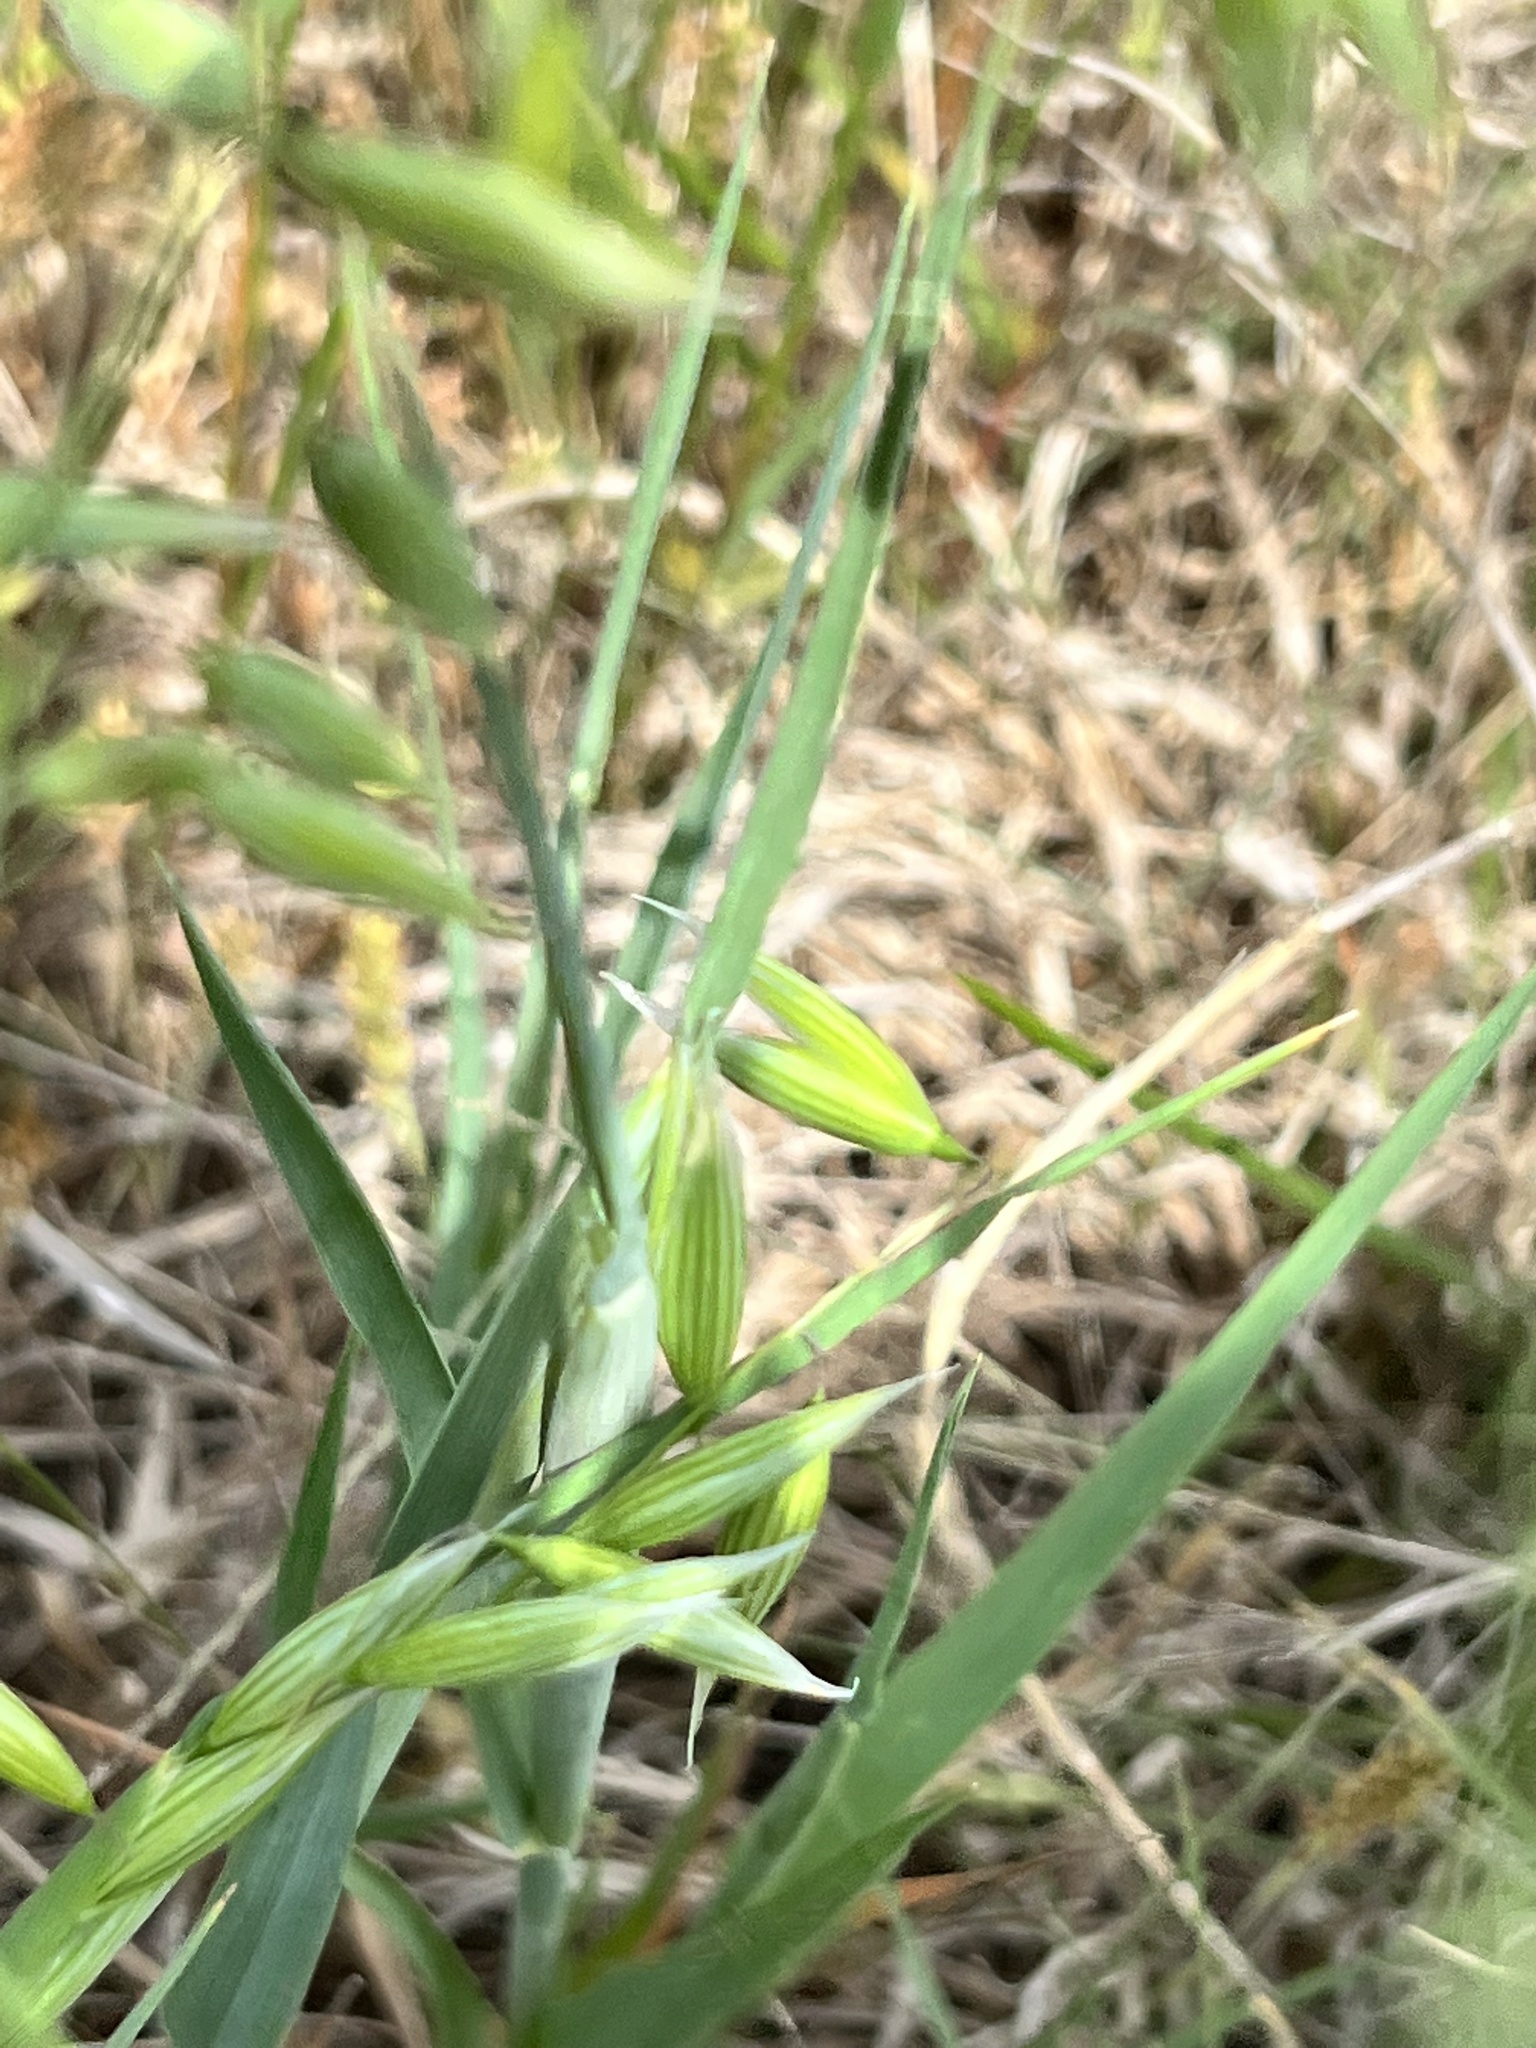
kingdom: Plantae
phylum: Tracheophyta
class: Liliopsida
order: Poales
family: Poaceae
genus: Avena
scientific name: Avena sativa
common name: Oat
